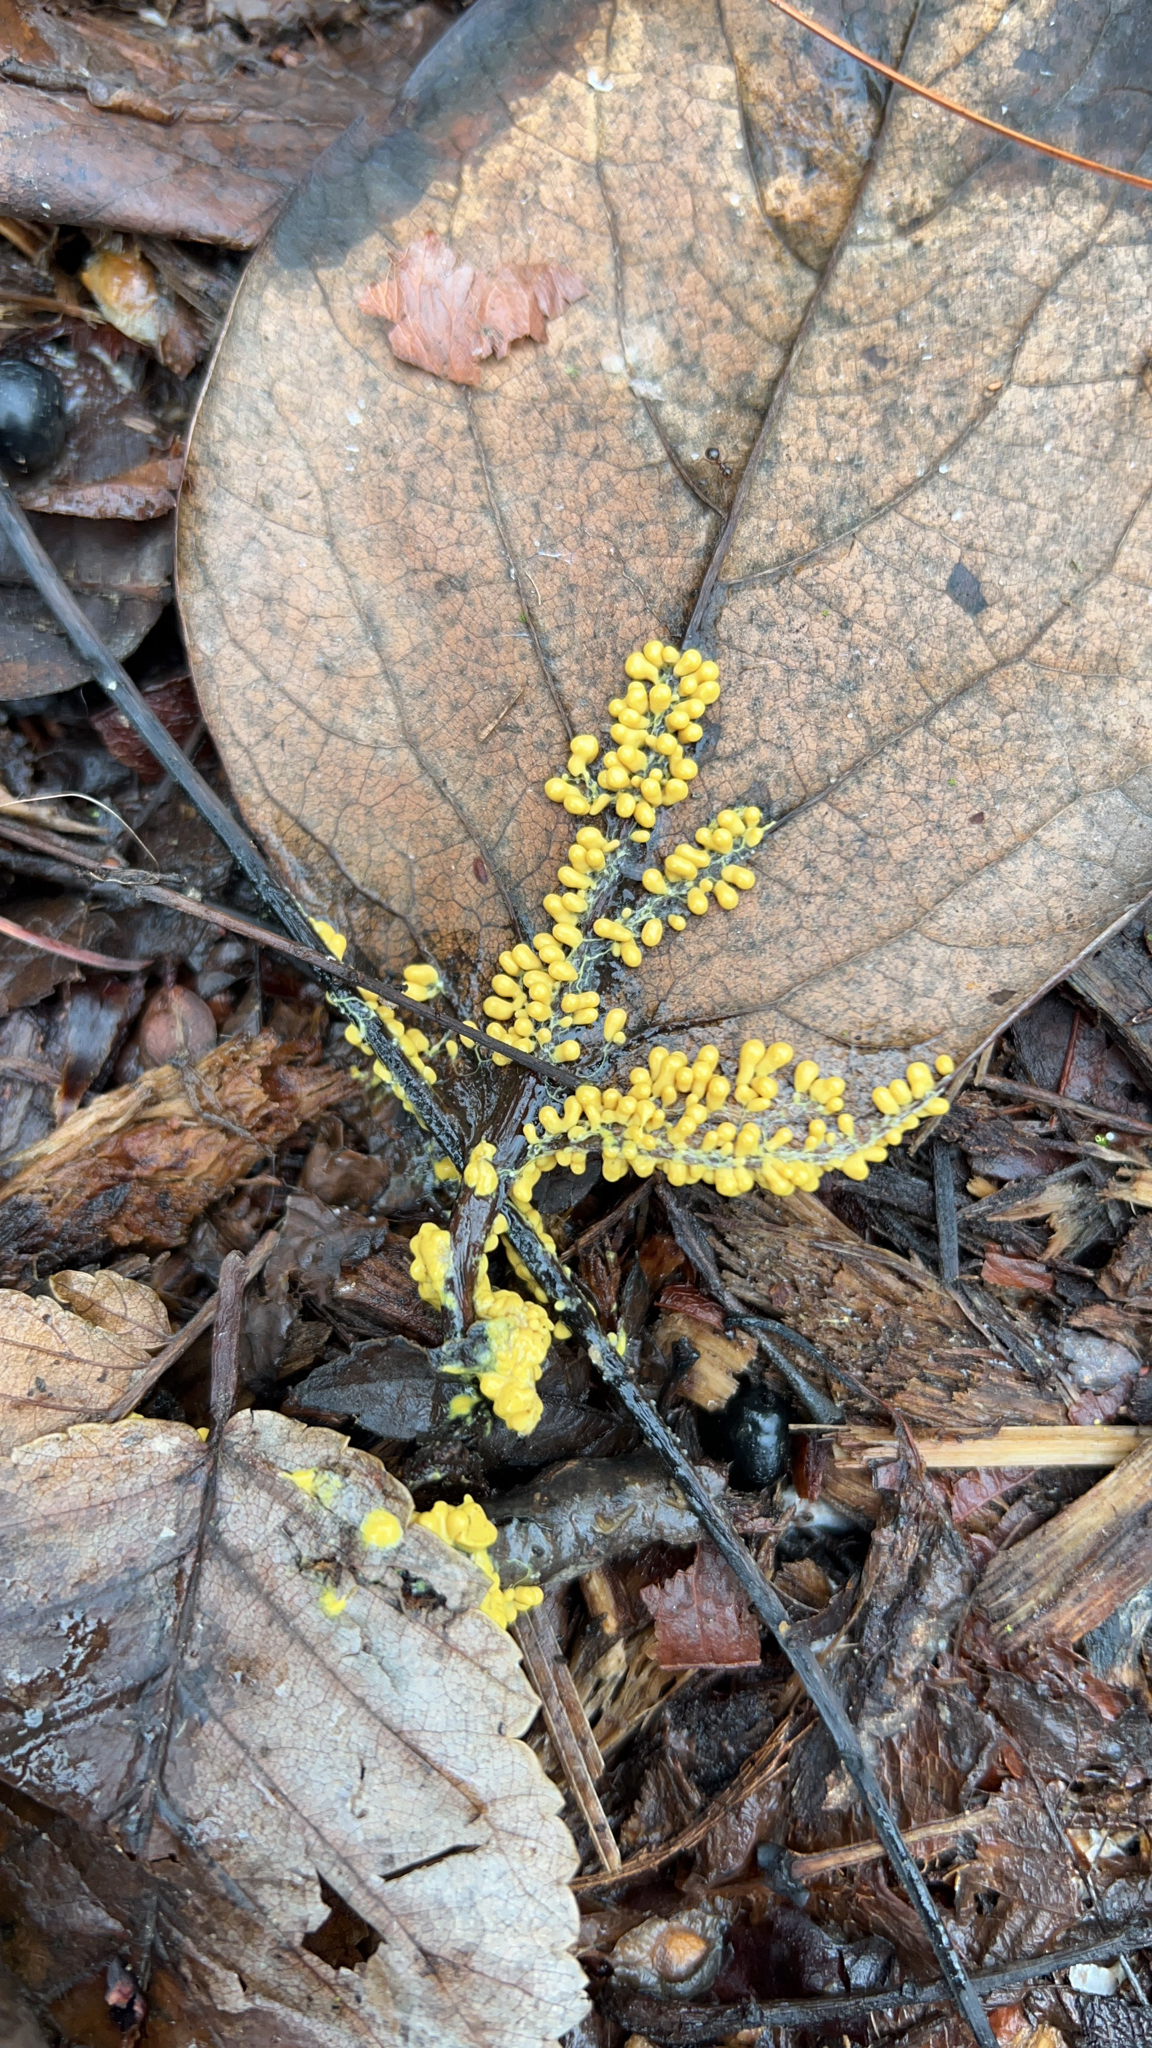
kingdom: Protozoa
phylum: Mycetozoa
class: Myxomycetes
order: Physarales
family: Physaraceae
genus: Leocarpus
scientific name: Leocarpus fragilis
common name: Insect-egg slime
